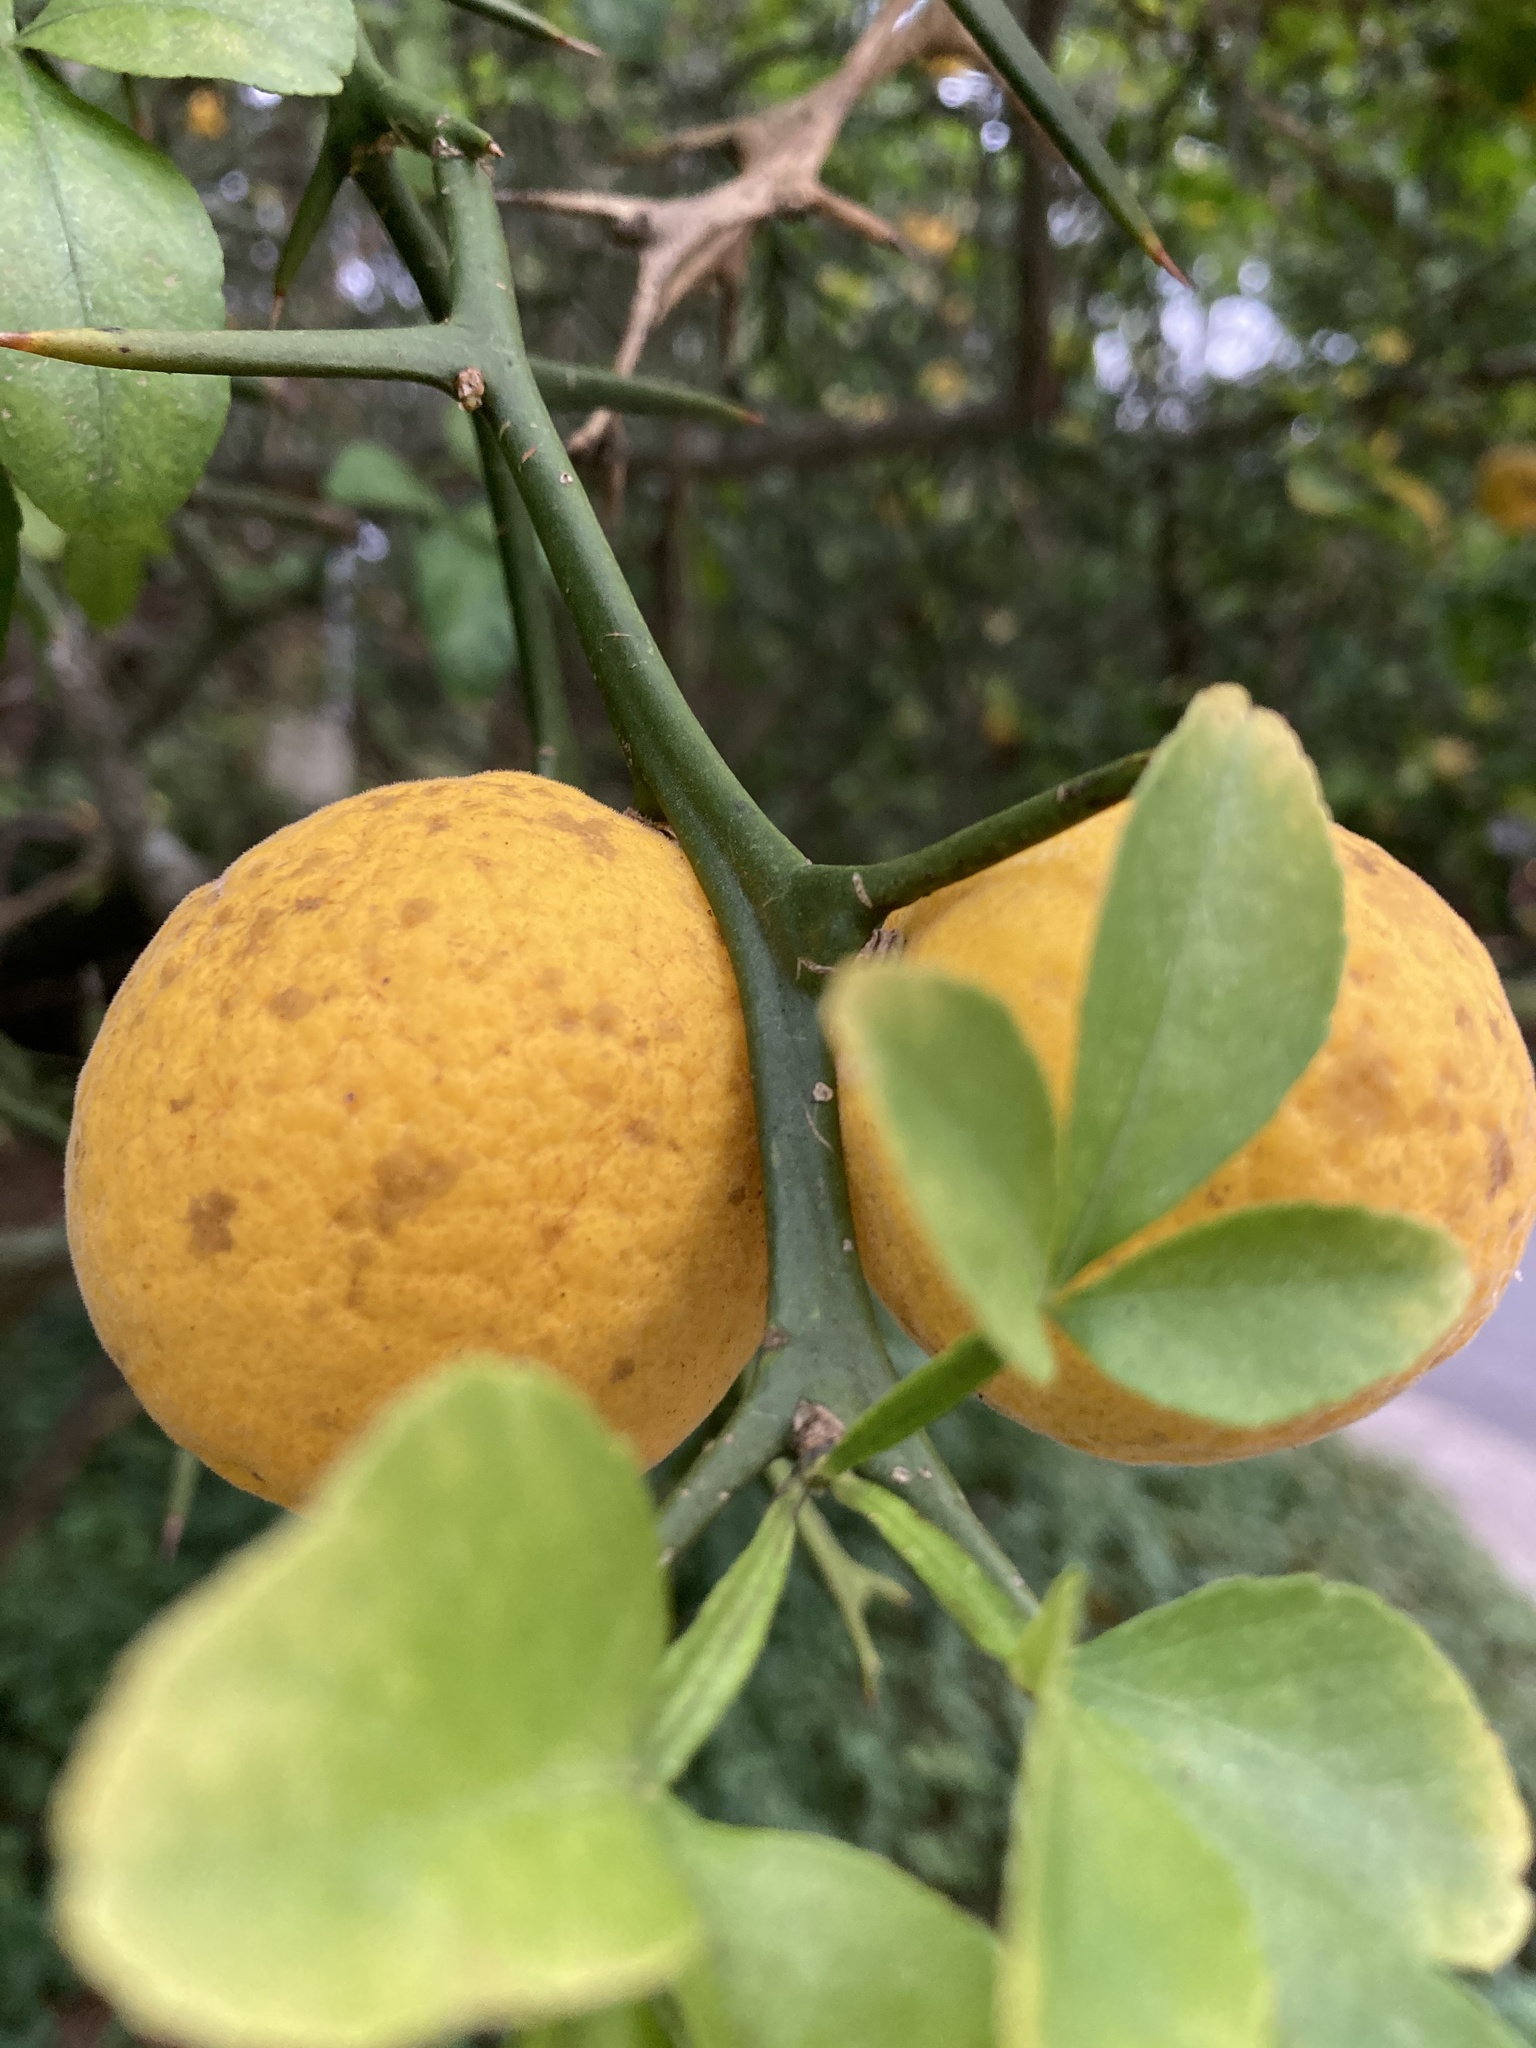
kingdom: Plantae
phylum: Tracheophyta
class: Magnoliopsida
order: Sapindales
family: Rutaceae
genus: Citrus
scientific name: Citrus trifoliata
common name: Japanese bitter-orange
